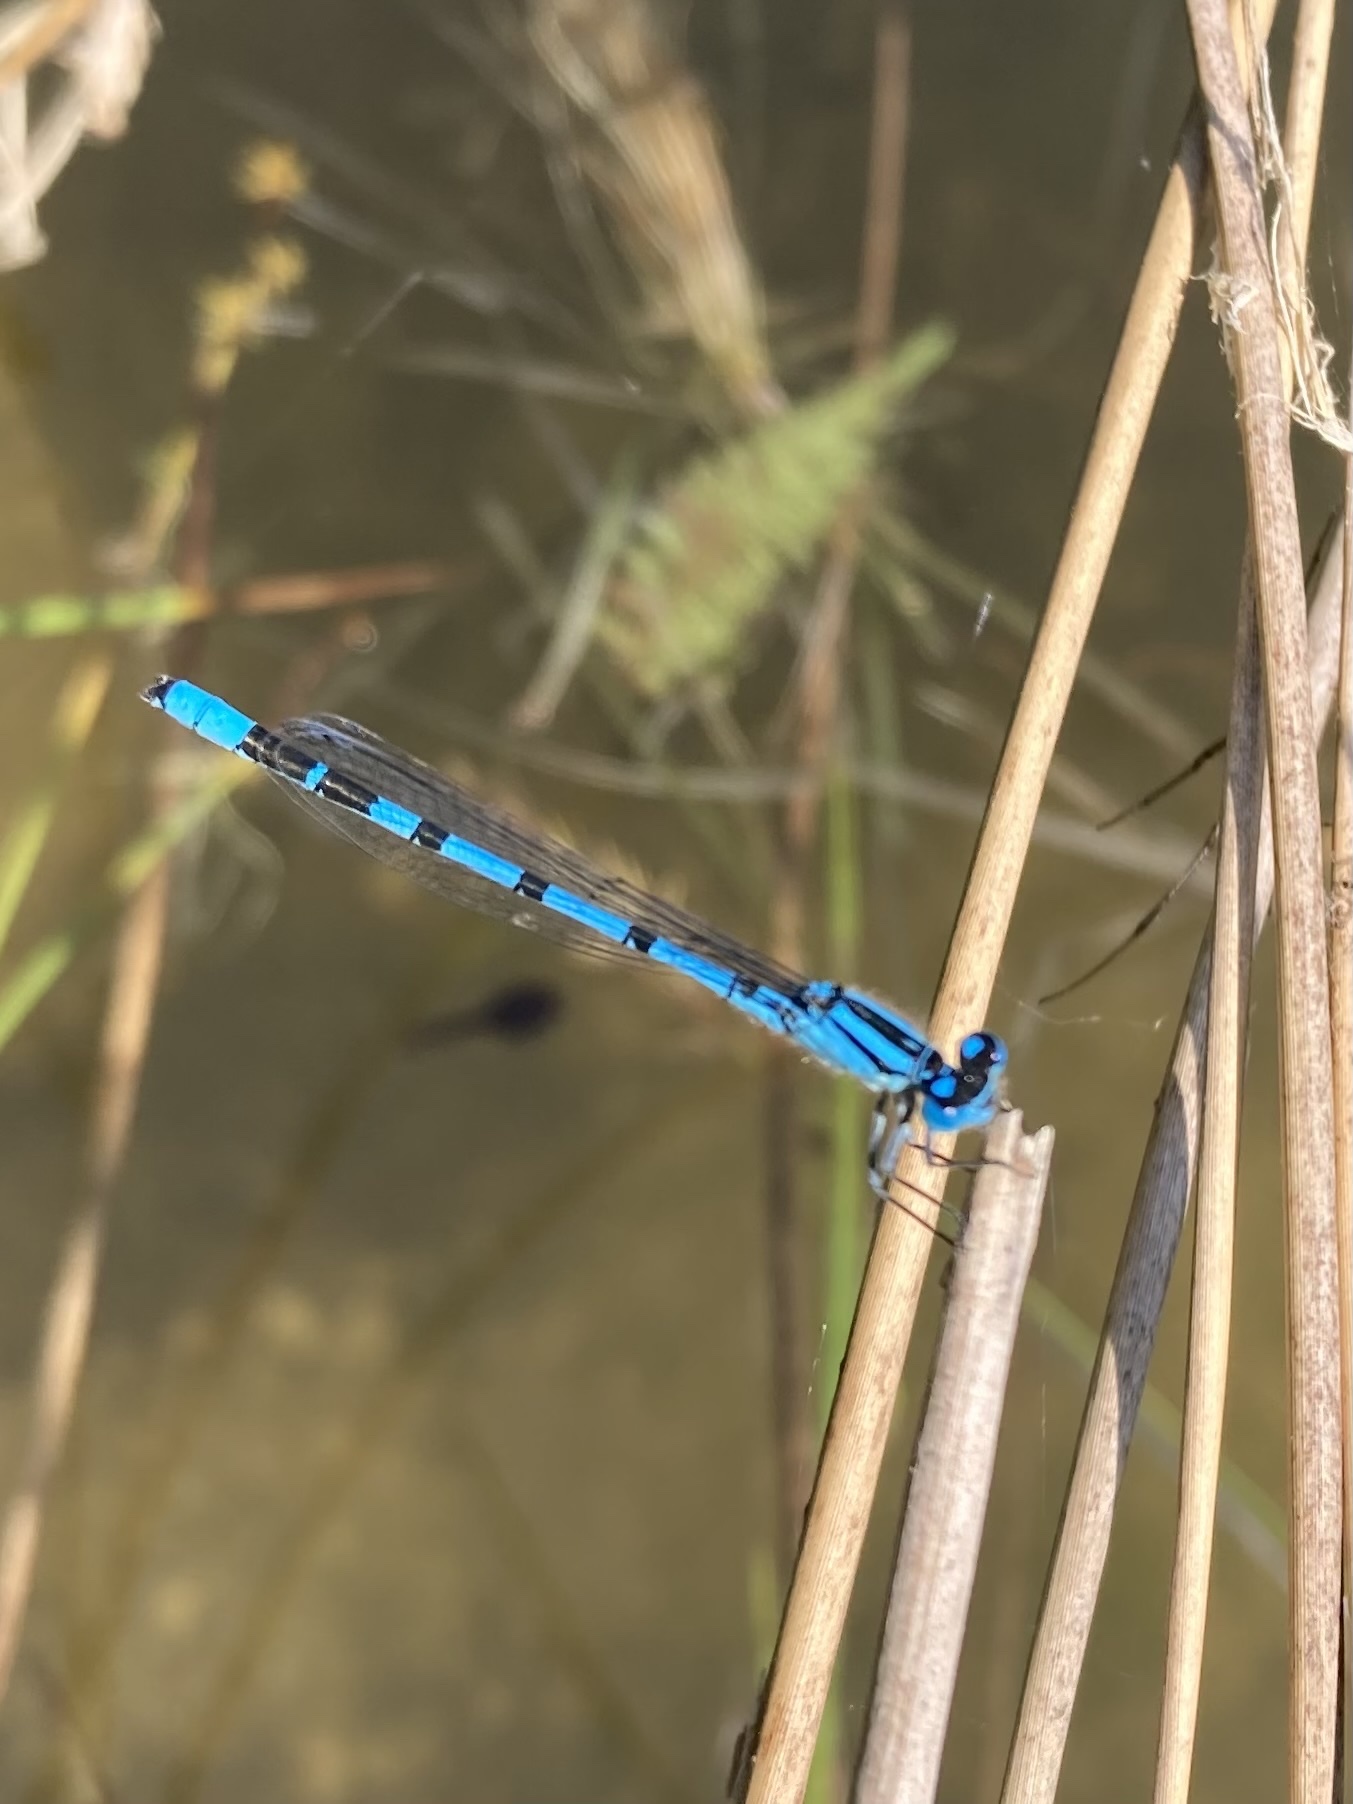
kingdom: Animalia
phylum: Arthropoda
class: Insecta
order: Odonata
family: Coenagrionidae
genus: Enallagma
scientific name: Enallagma cyathigerum
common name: Common blue damselfly
